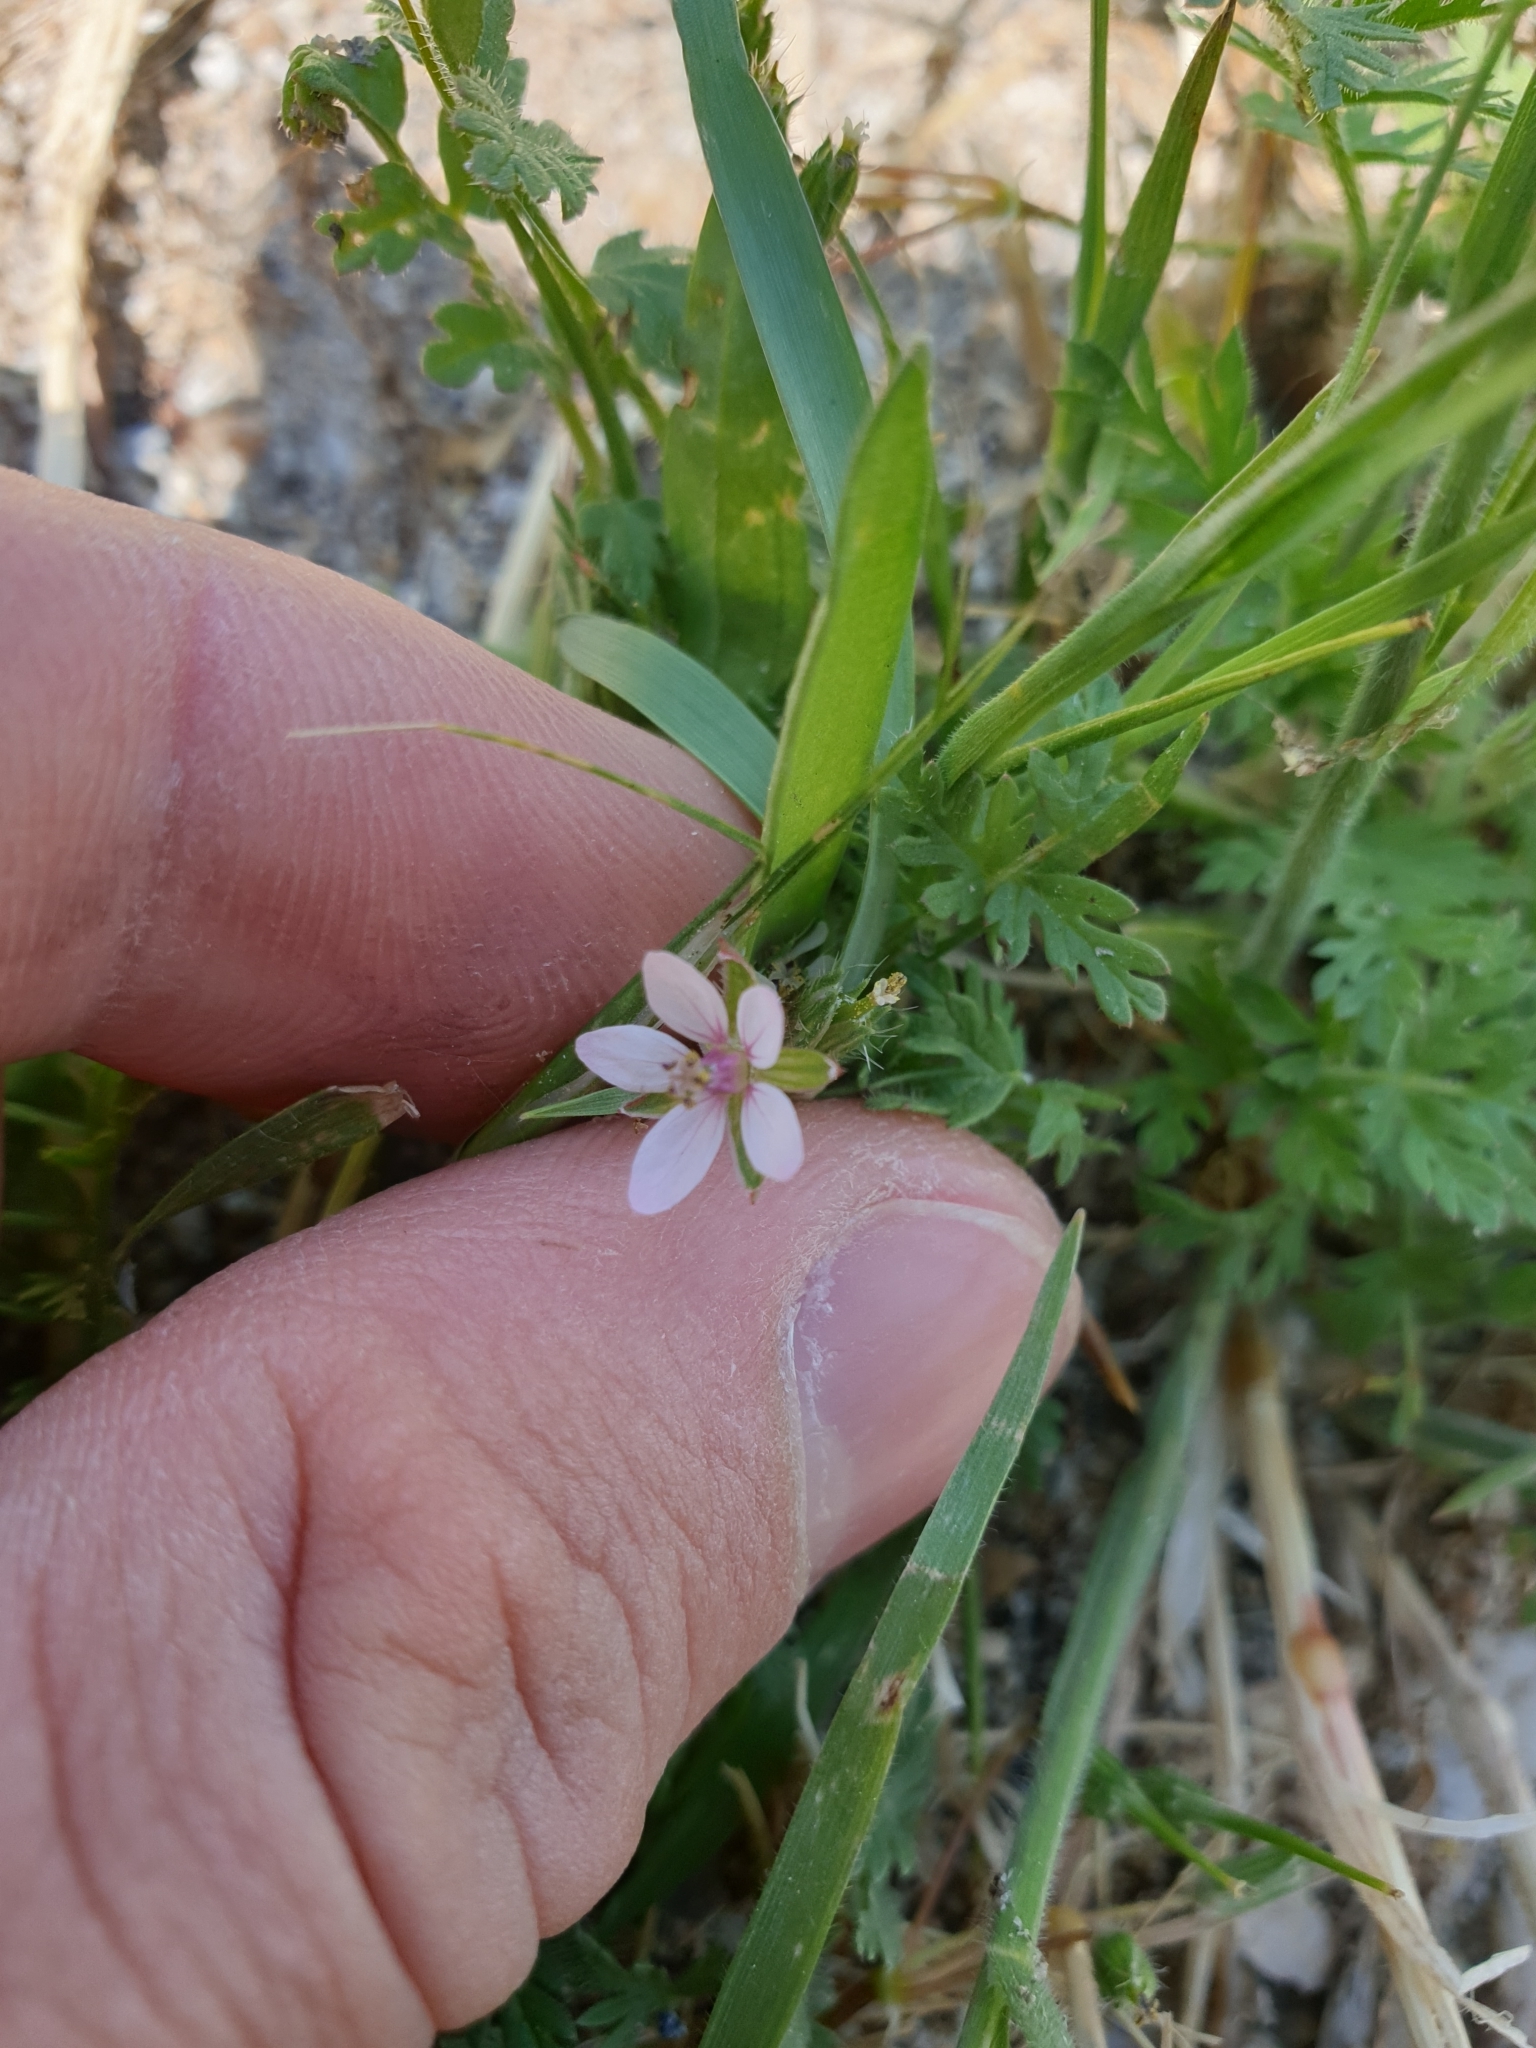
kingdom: Plantae
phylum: Tracheophyta
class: Magnoliopsida
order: Geraniales
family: Geraniaceae
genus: Erodium
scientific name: Erodium cicutarium
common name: Common stork's-bill
